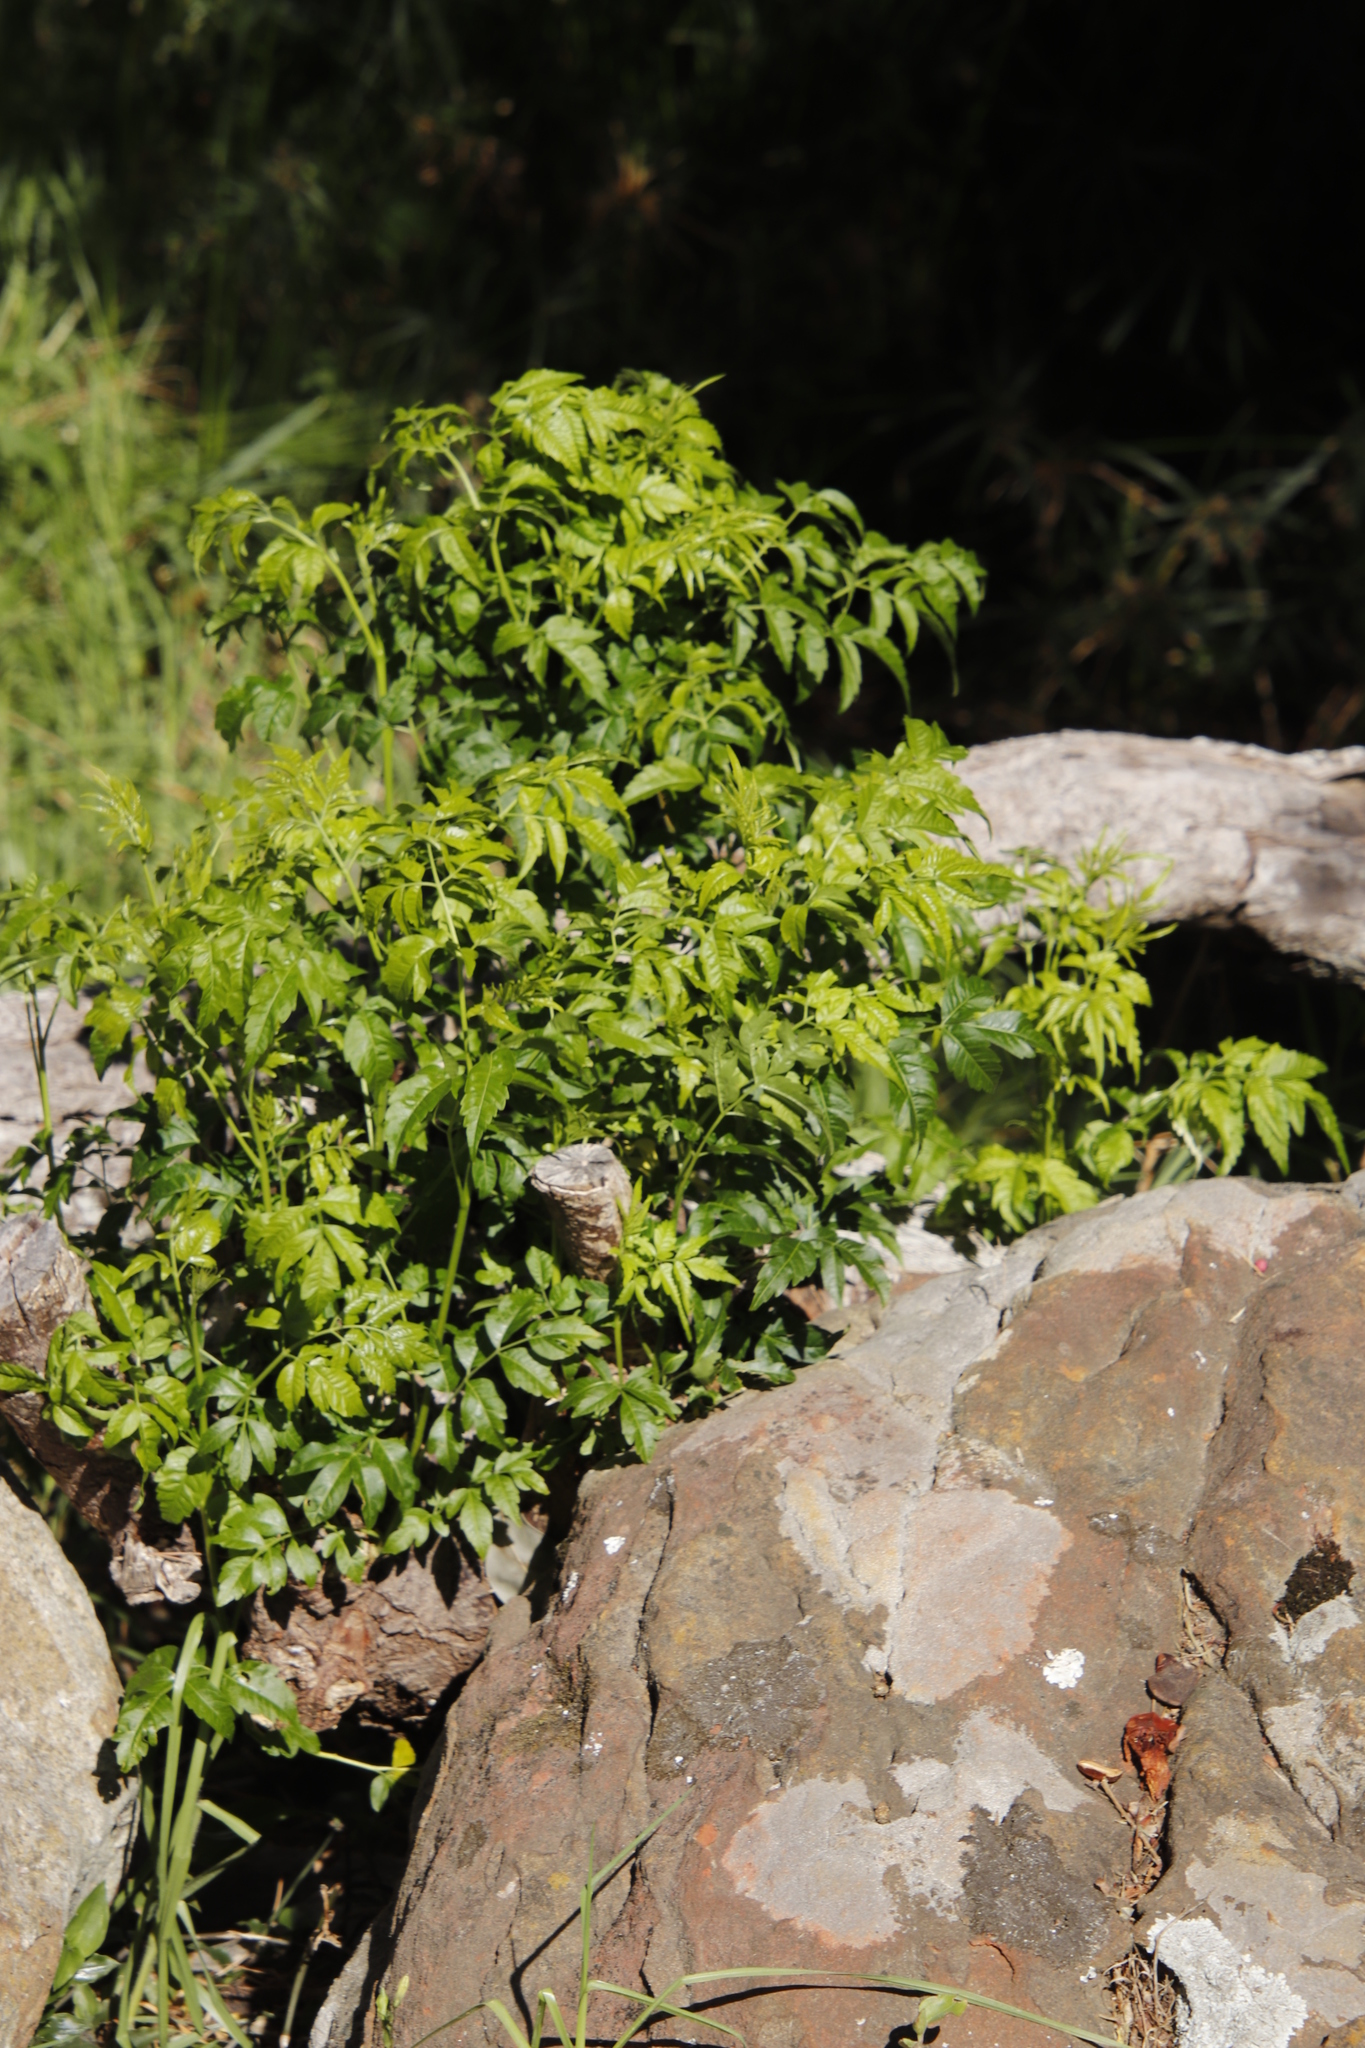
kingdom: Plantae
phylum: Tracheophyta
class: Magnoliopsida
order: Lamiales
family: Bignoniaceae
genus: Tecomaria
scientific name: Tecomaria capensis
